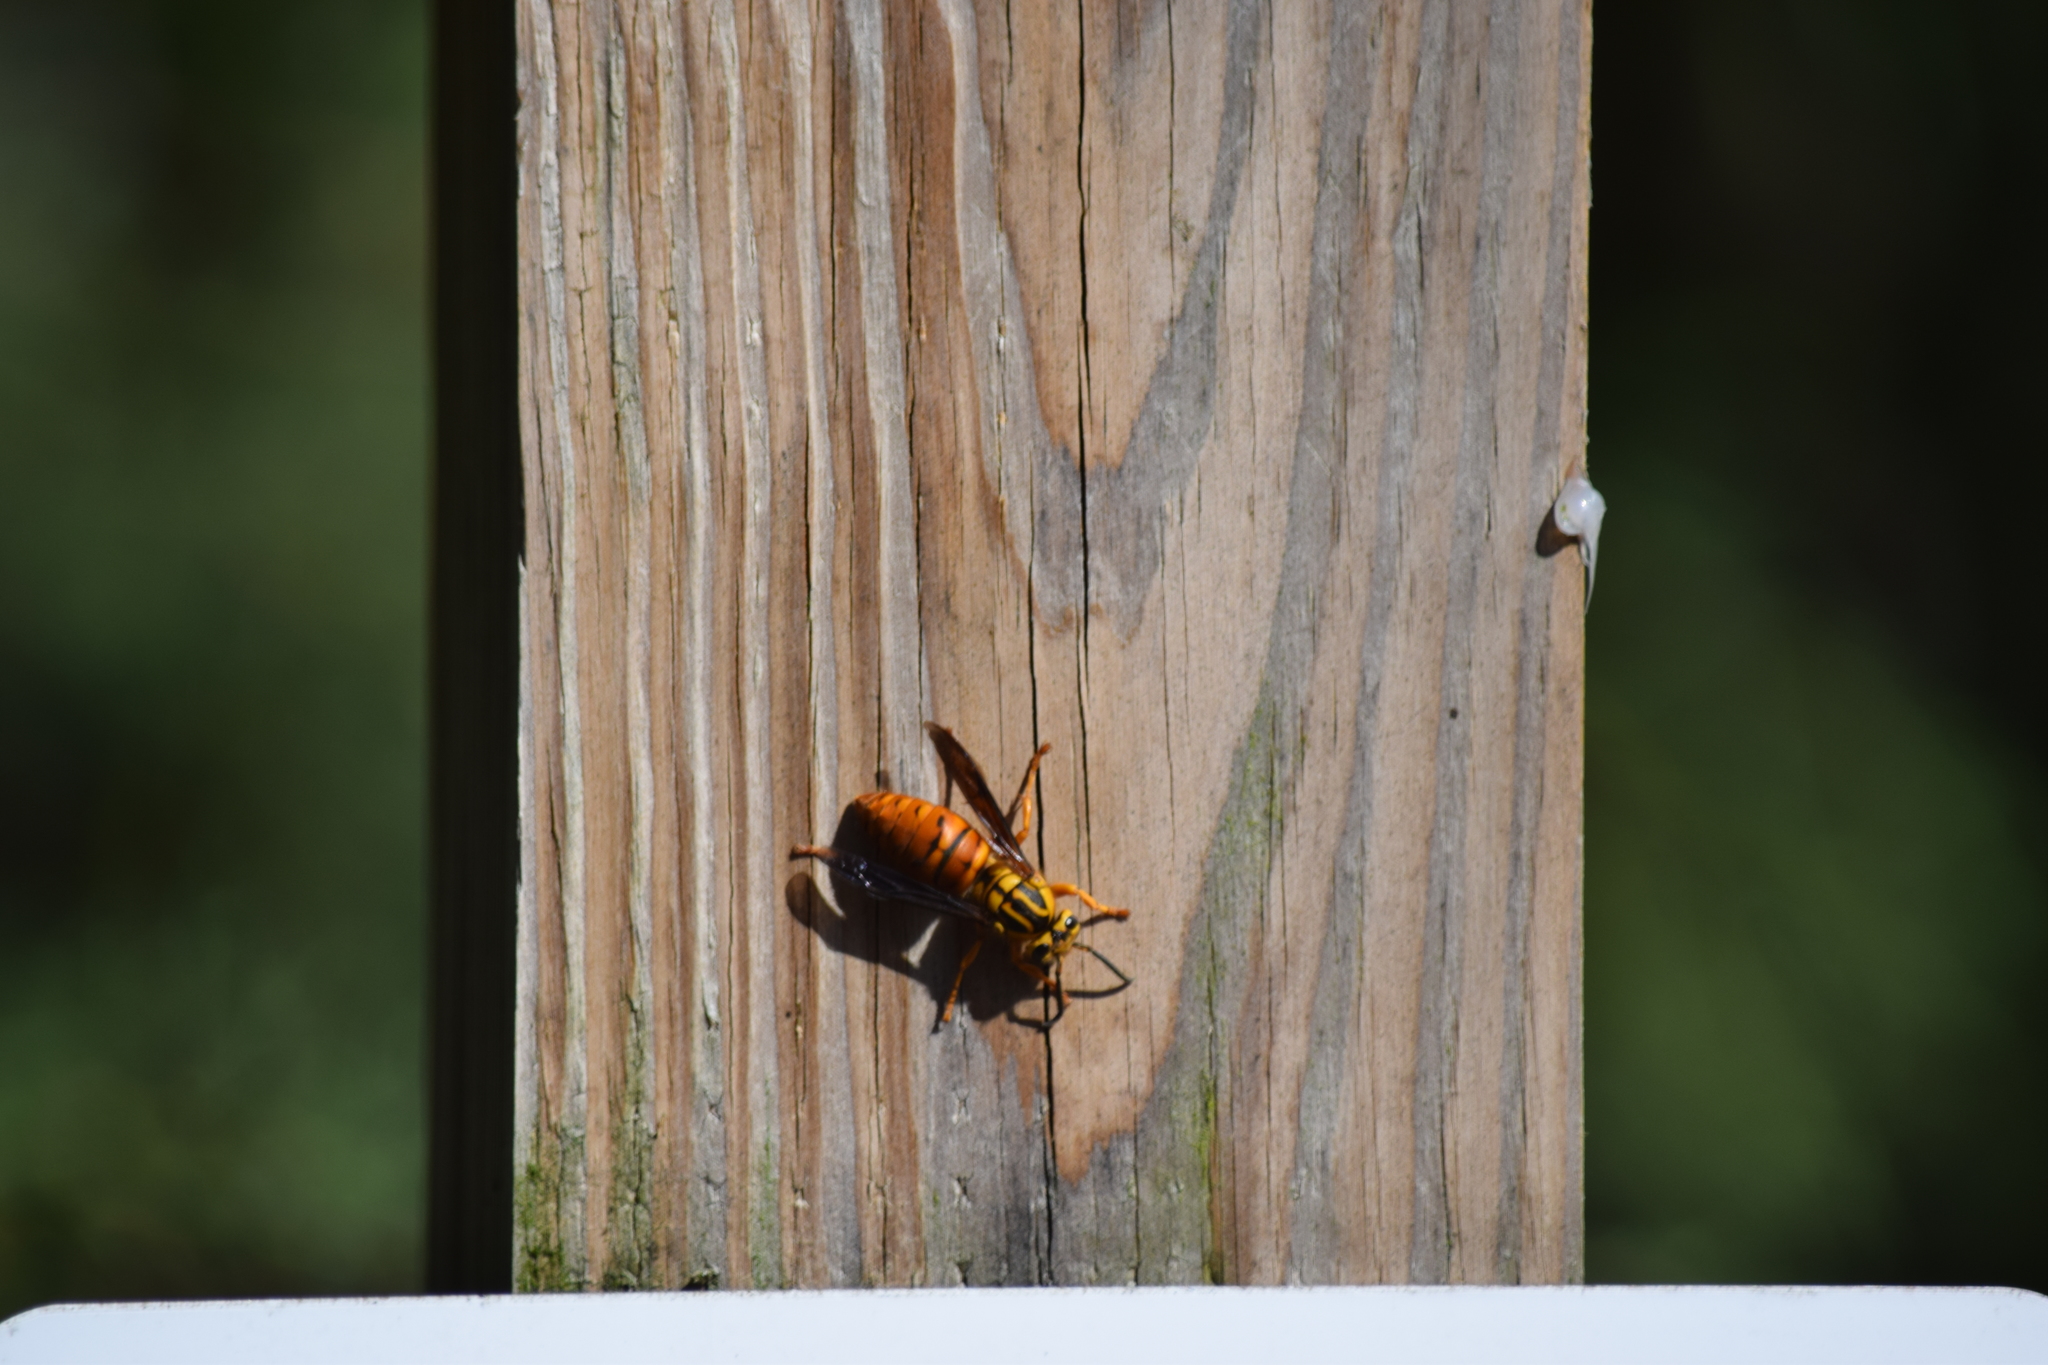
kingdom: Animalia
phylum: Arthropoda
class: Insecta
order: Hymenoptera
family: Vespidae
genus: Vespula
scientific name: Vespula squamosa
